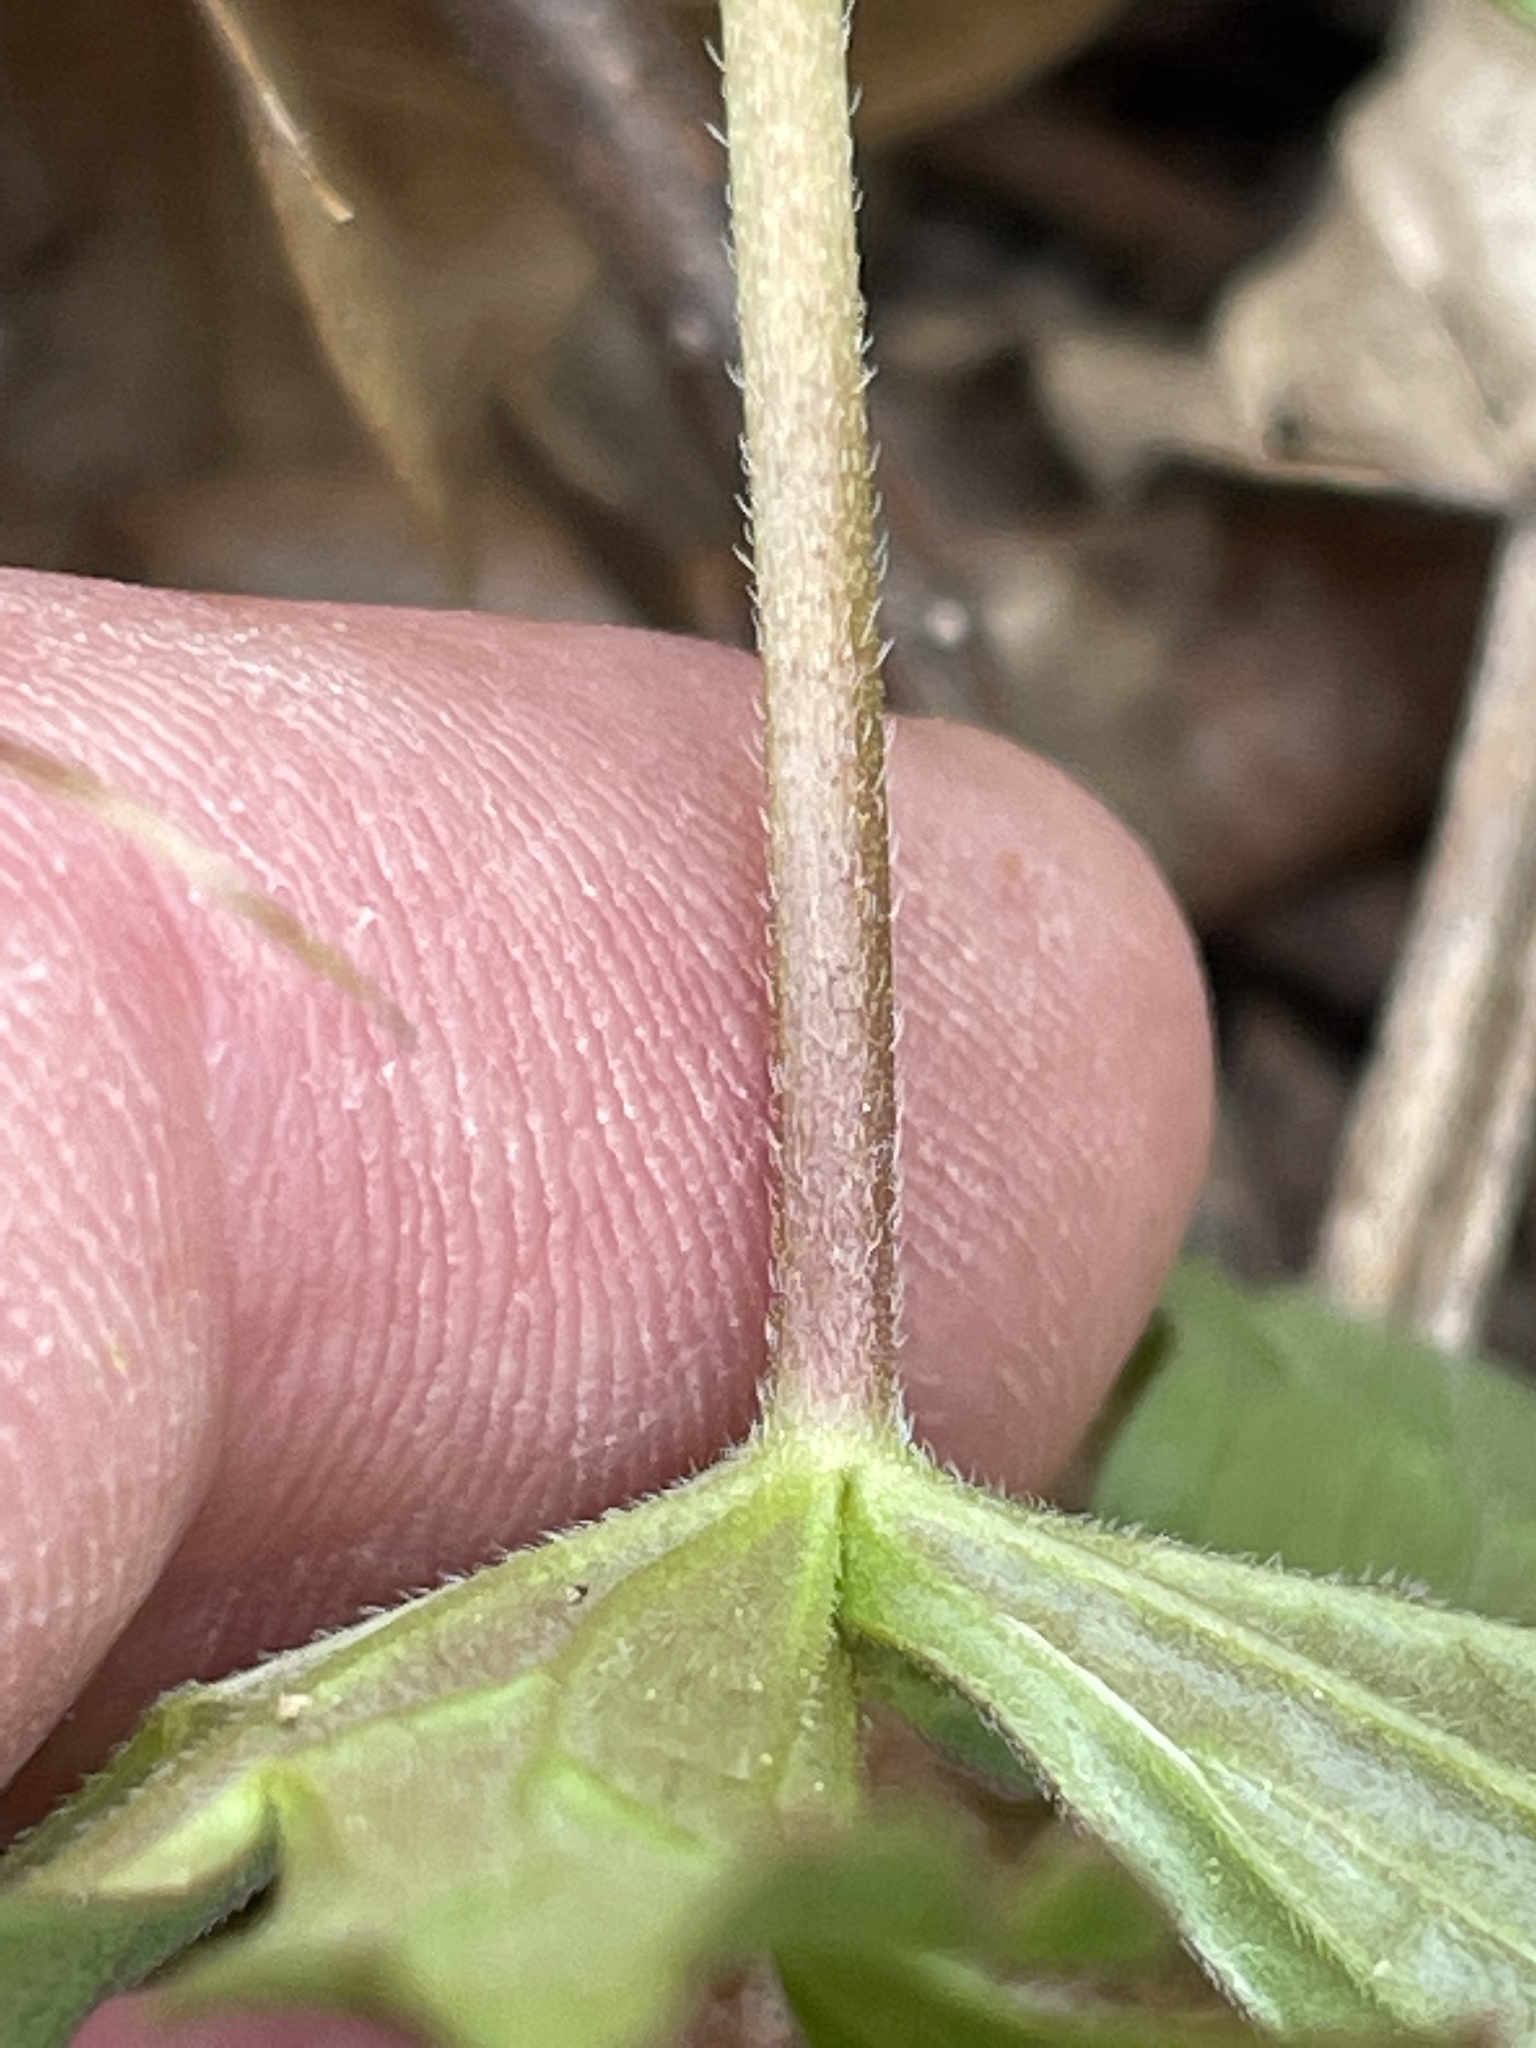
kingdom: Plantae
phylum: Tracheophyta
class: Magnoliopsida
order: Geraniales
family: Geraniaceae
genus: Geranium
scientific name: Geranium maculatum
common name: Spotted geranium
